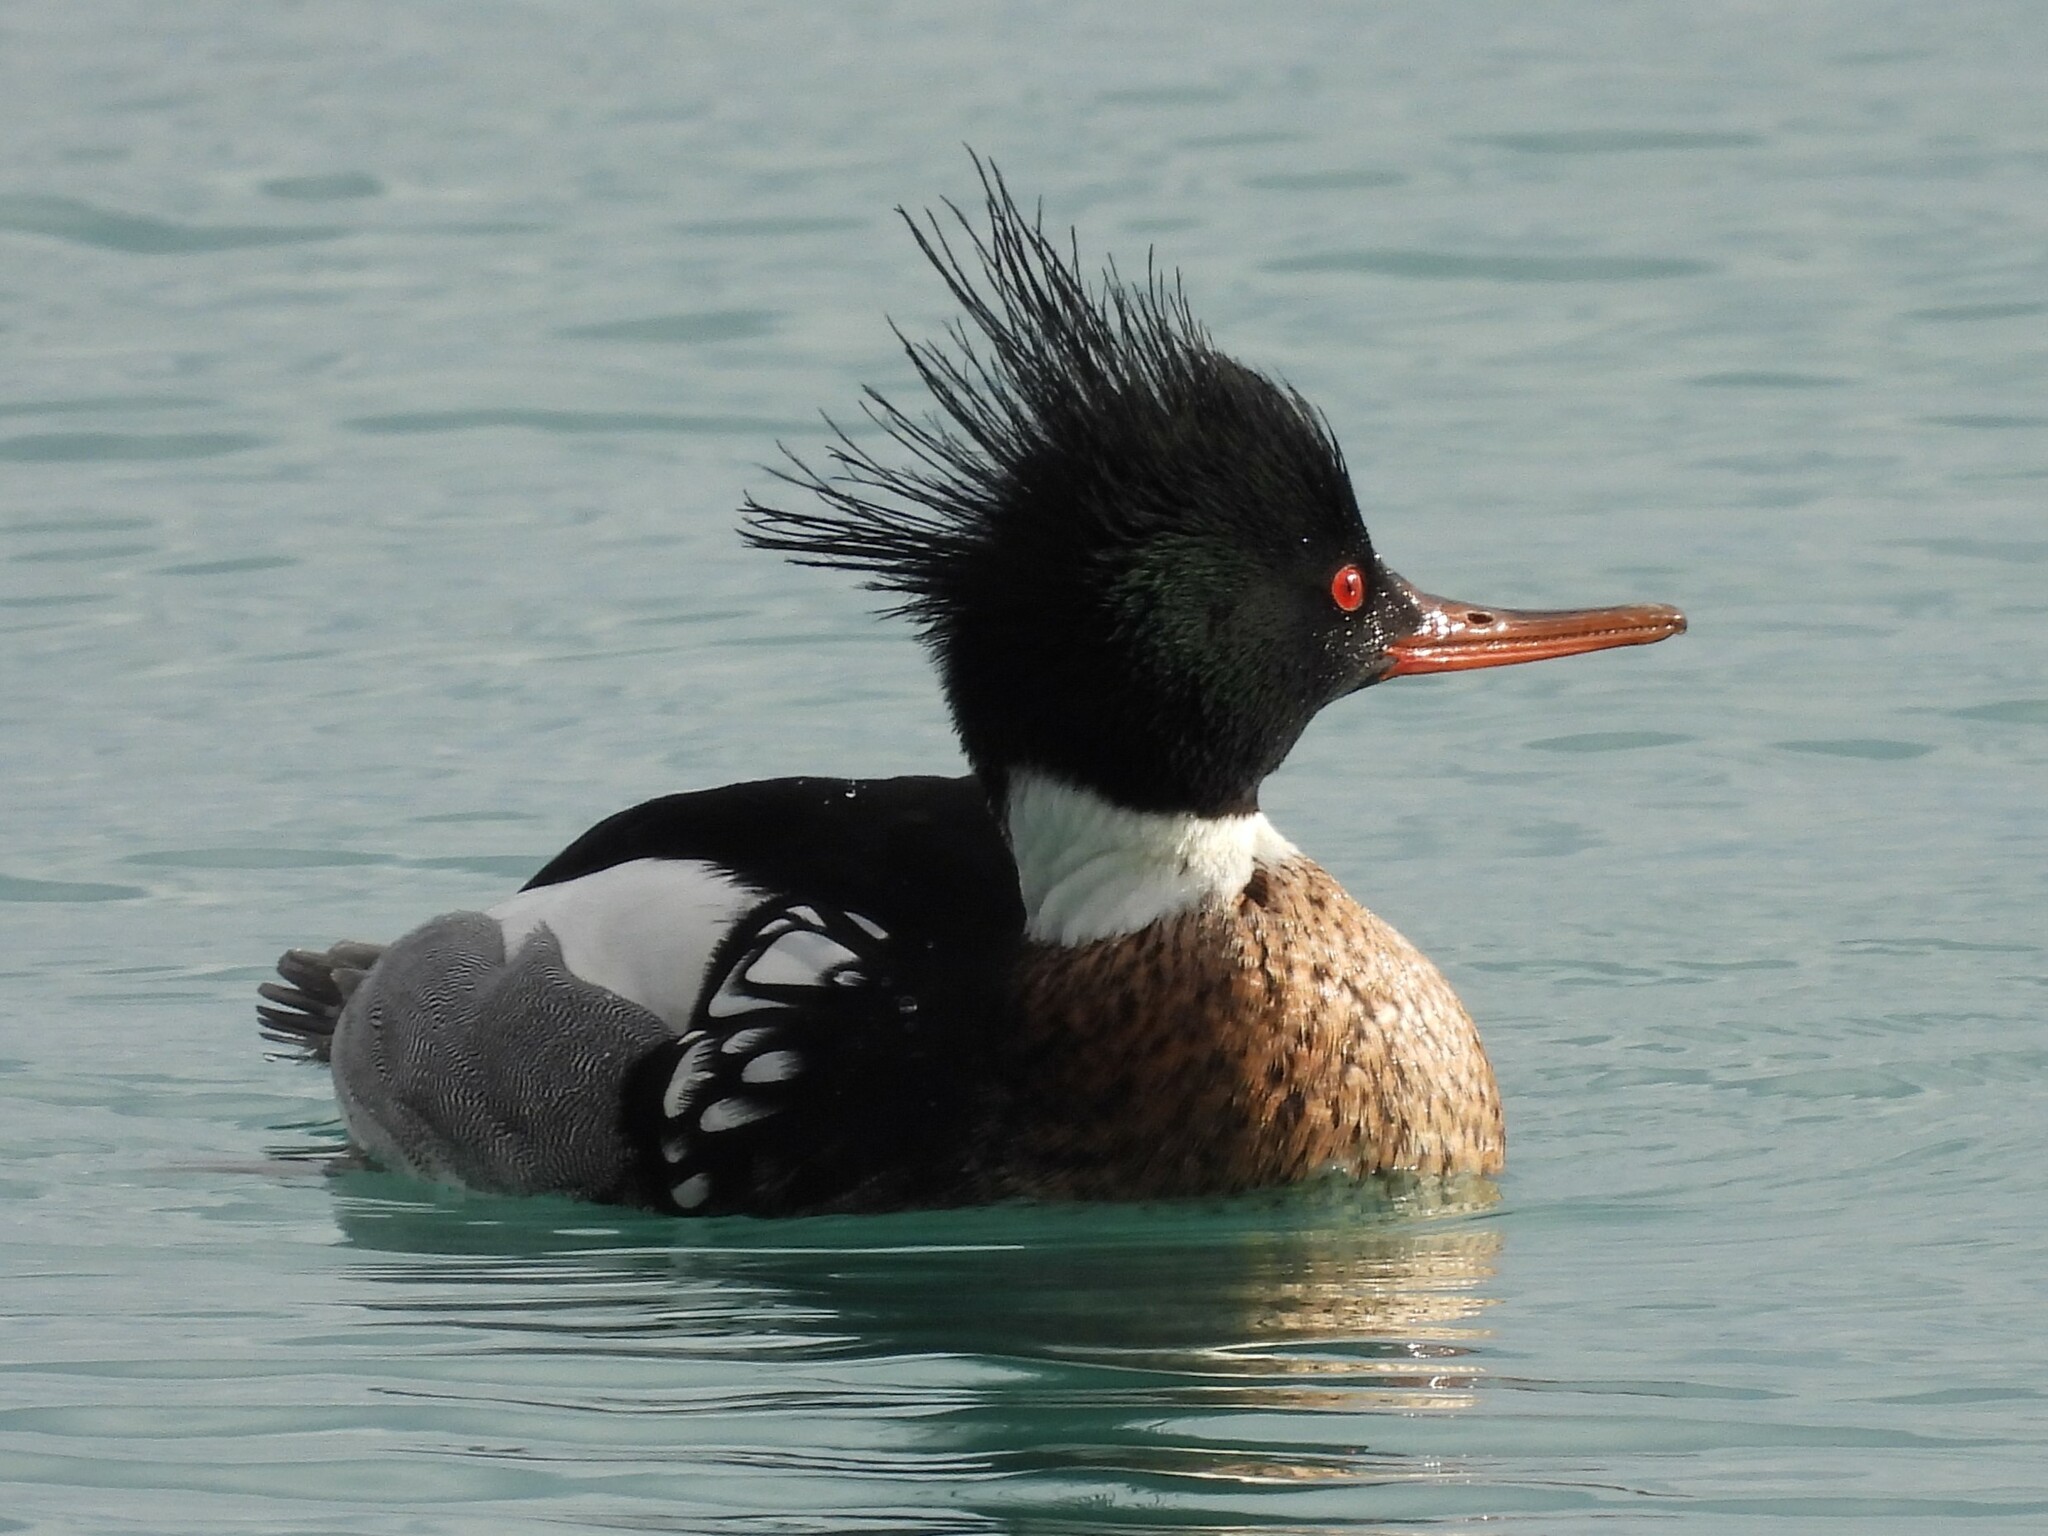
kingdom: Animalia
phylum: Chordata
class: Aves
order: Anseriformes
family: Anatidae
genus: Mergus
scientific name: Mergus serrator
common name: Red-breasted merganser
